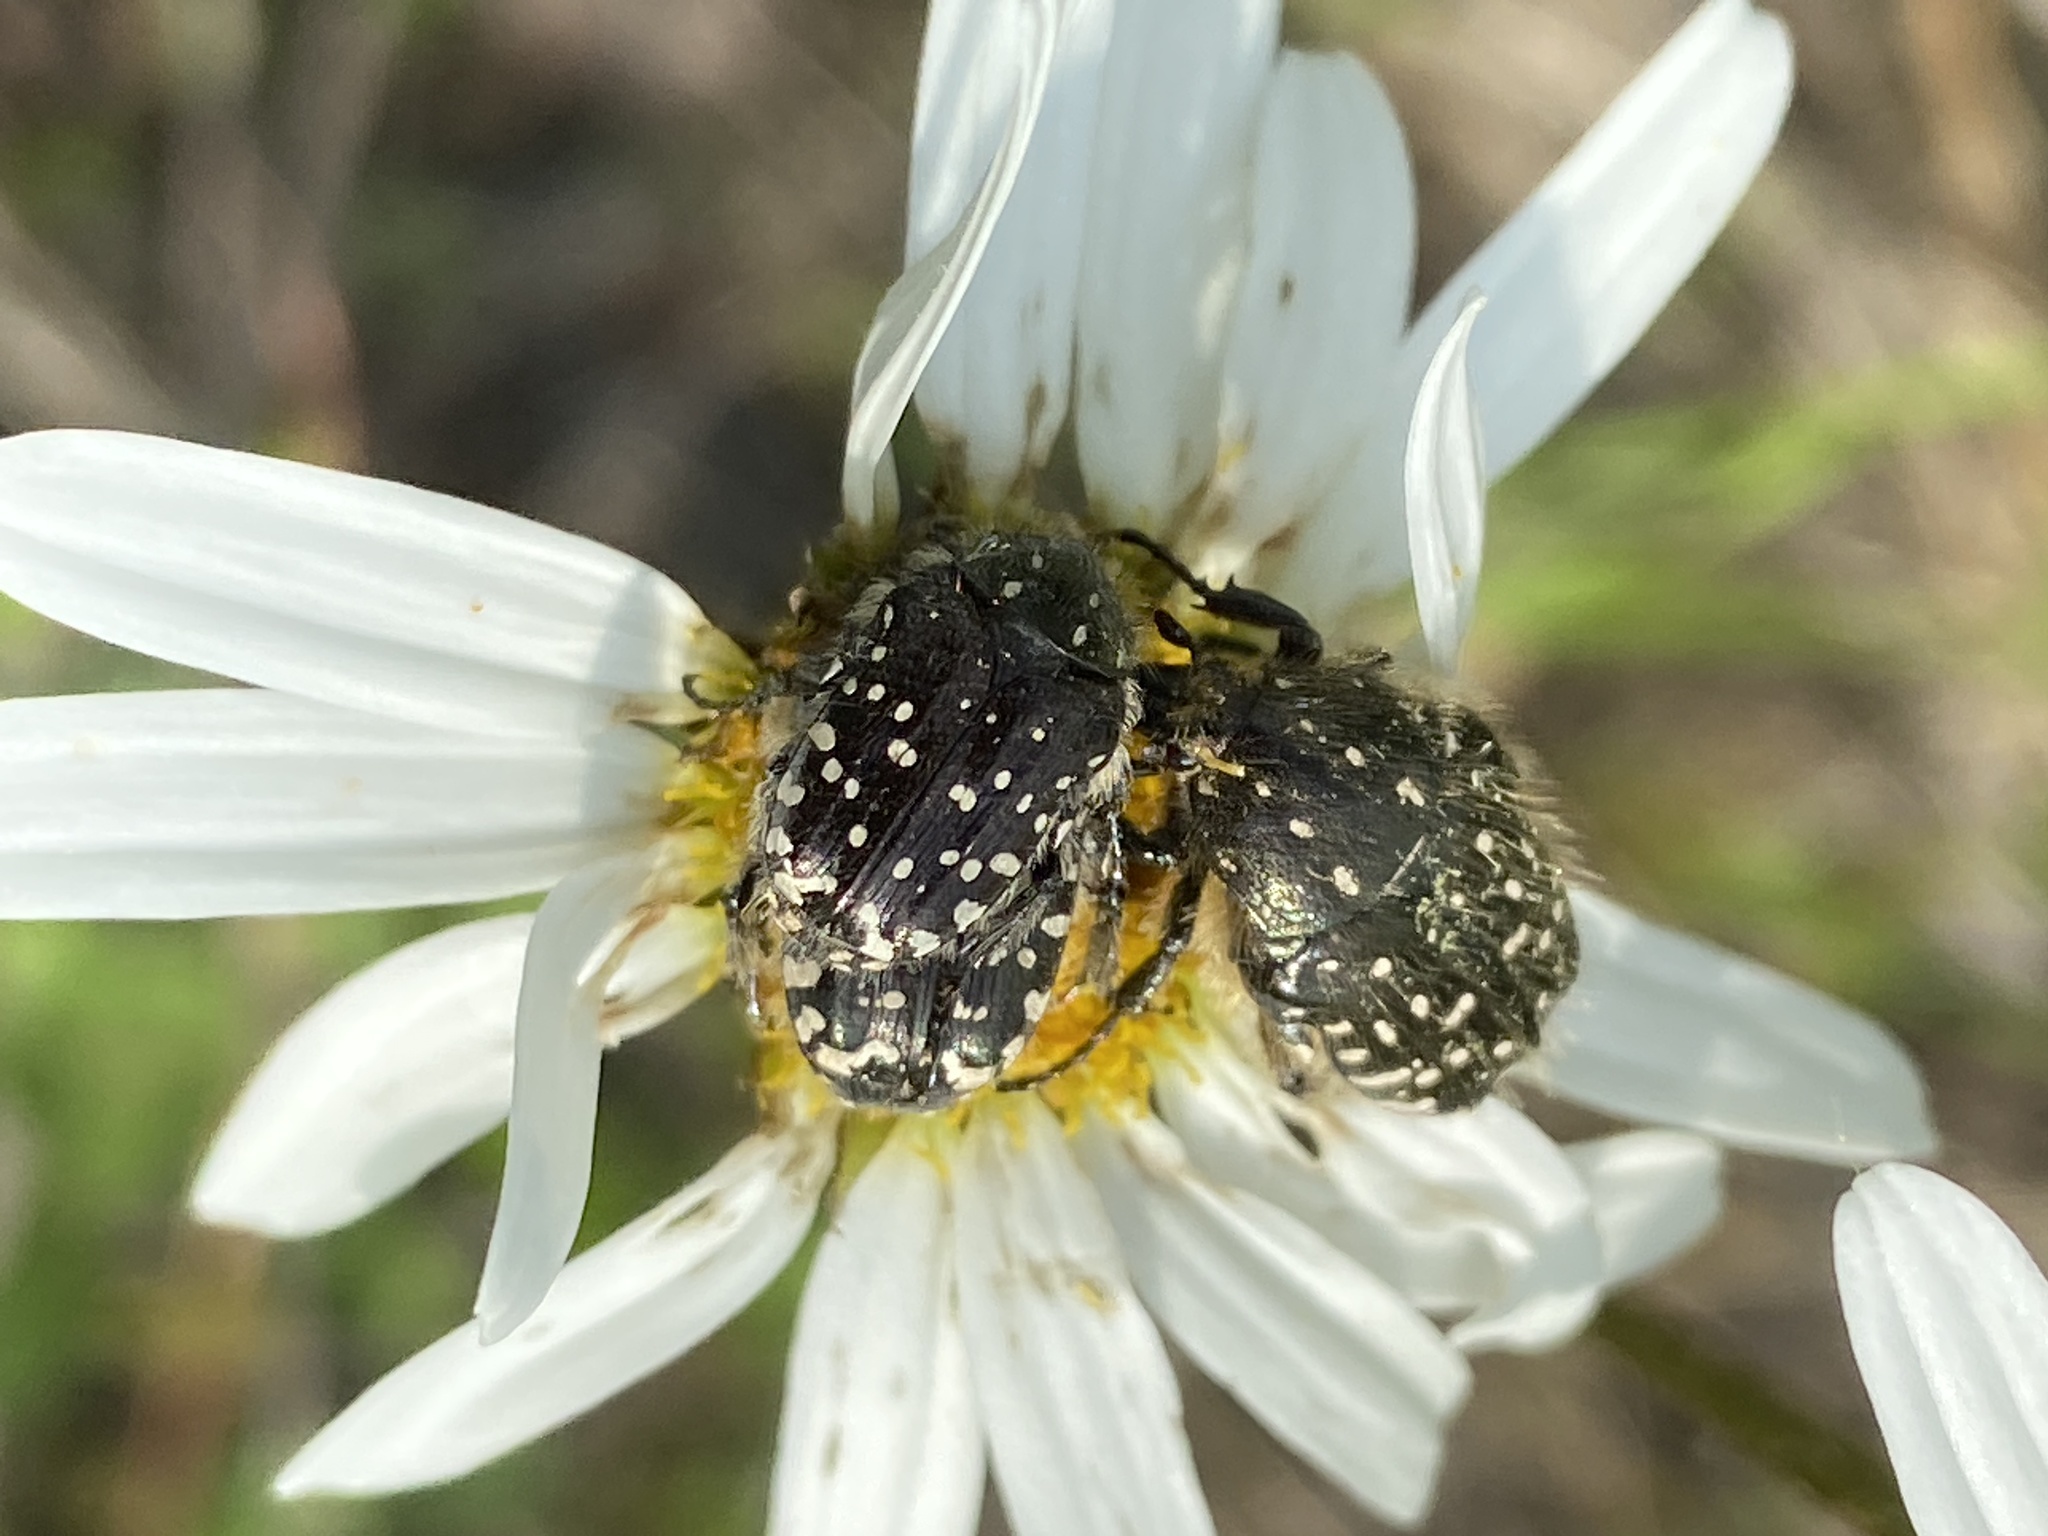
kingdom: Animalia
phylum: Arthropoda
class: Insecta
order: Coleoptera
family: Scarabaeidae
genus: Oxythyrea
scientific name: Oxythyrea funesta
